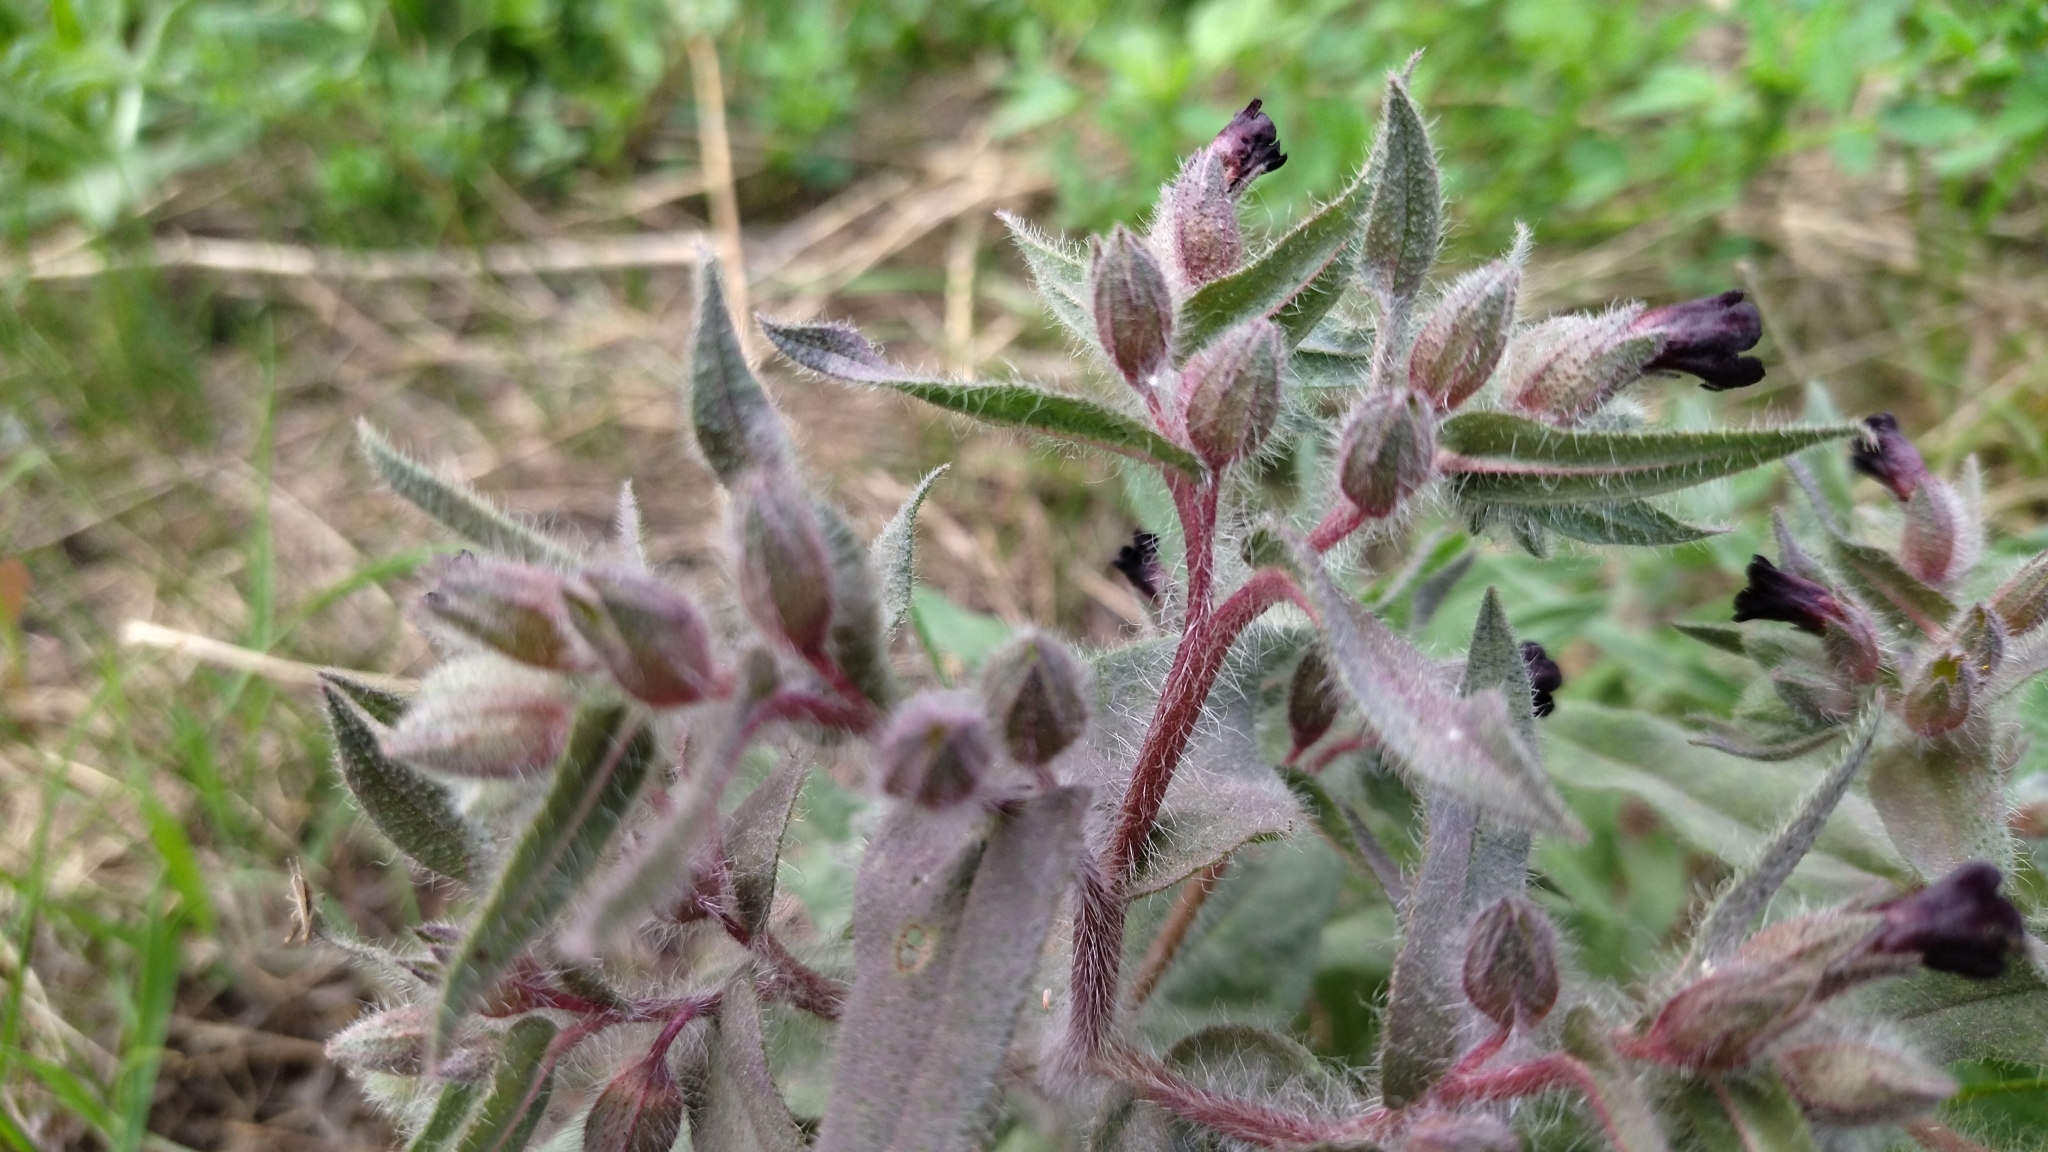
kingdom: Plantae
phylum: Tracheophyta
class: Magnoliopsida
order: Boraginales
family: Boraginaceae
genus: Nonea
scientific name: Nonea pulla
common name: Brown nonea
